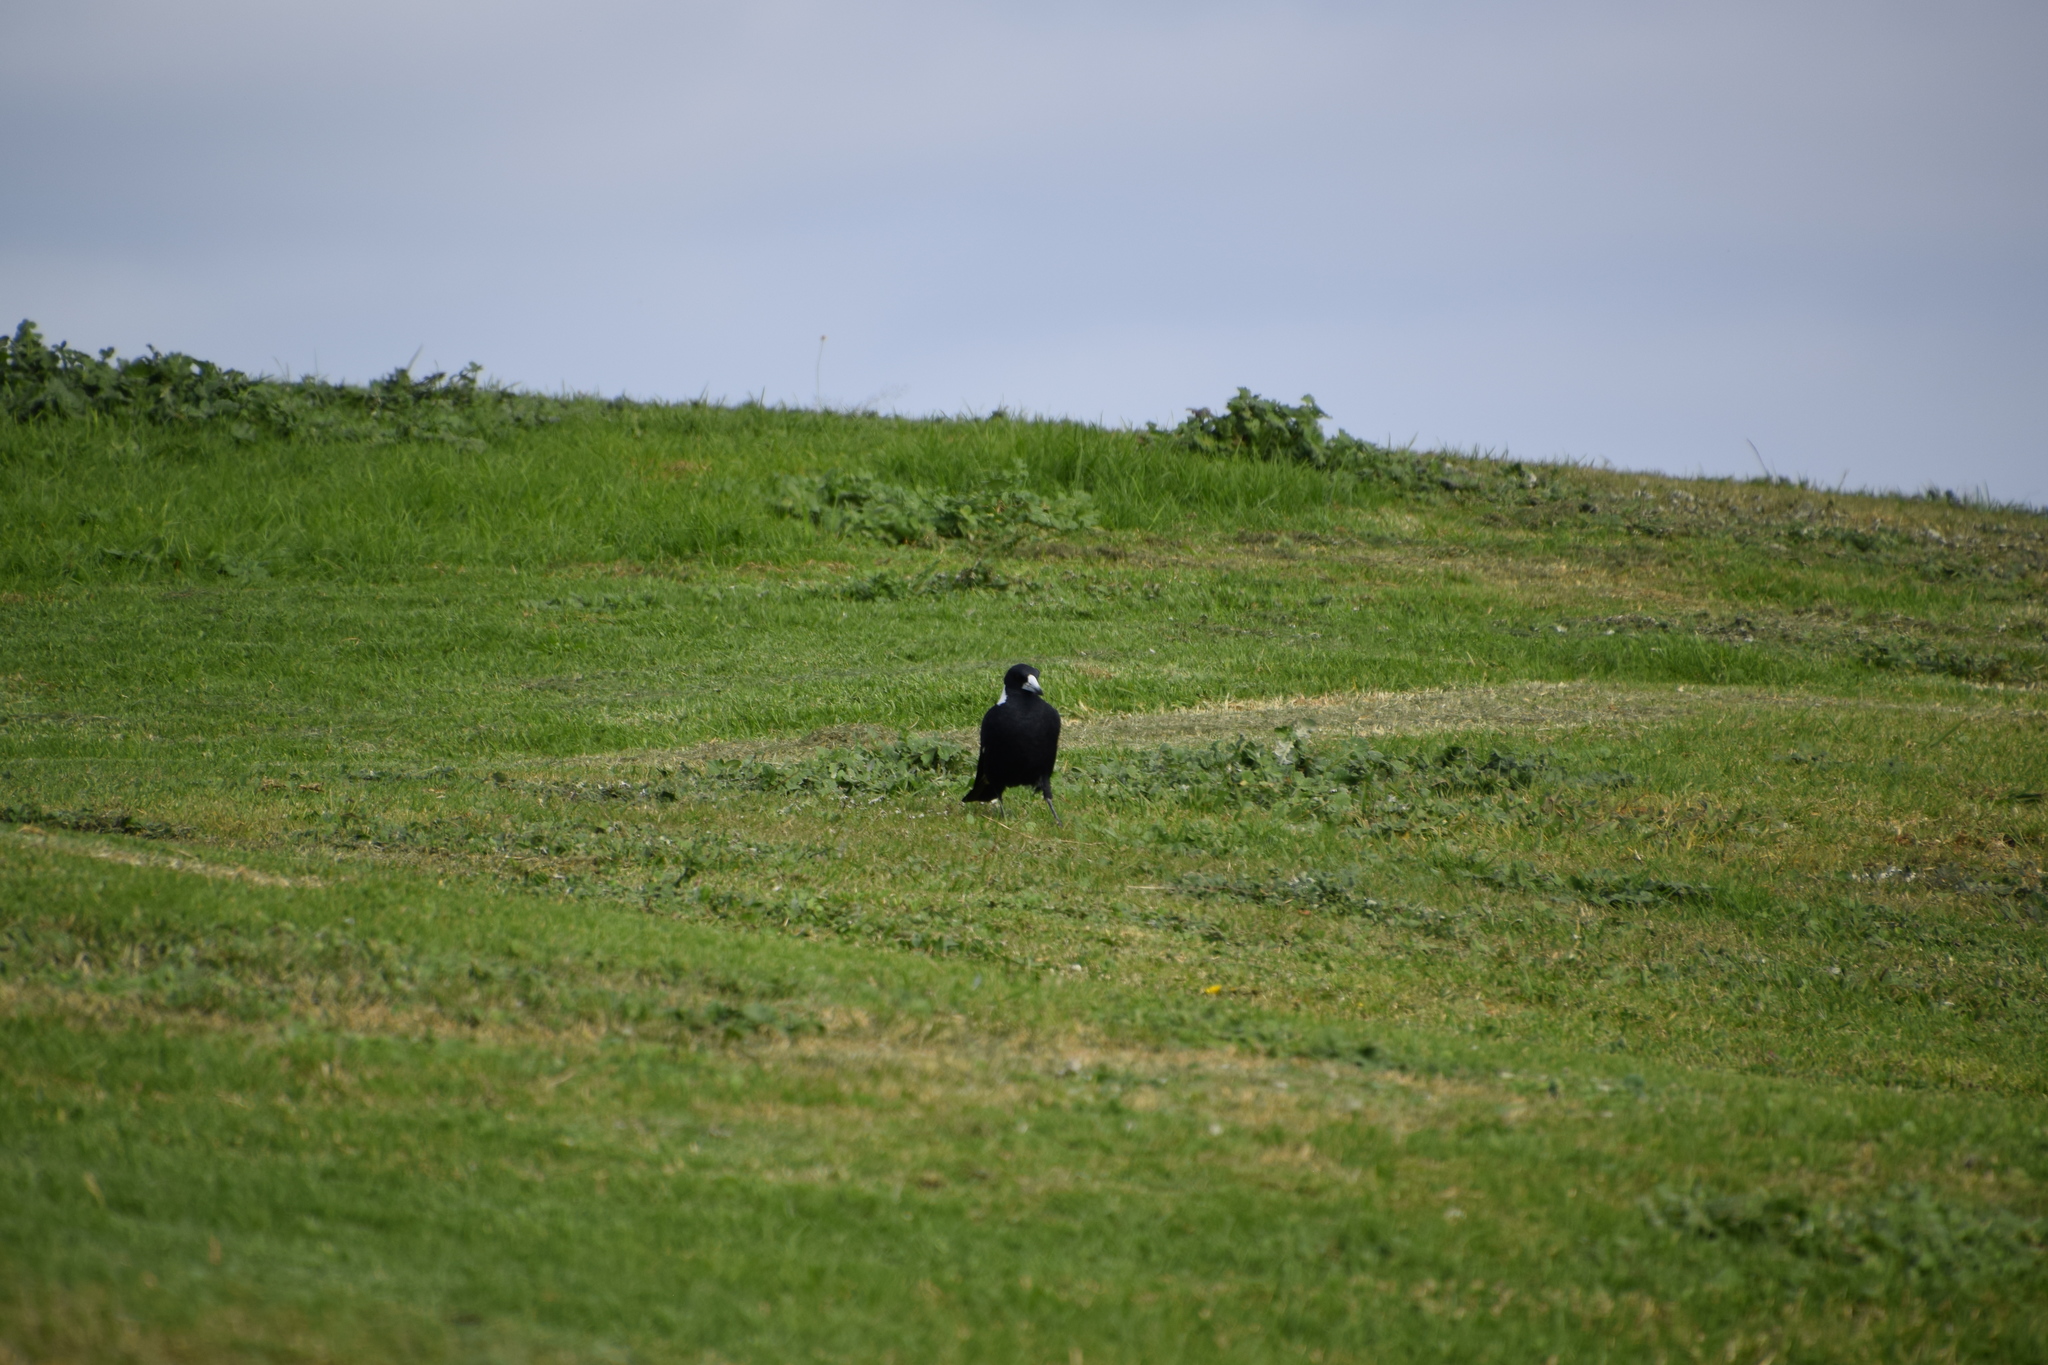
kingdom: Animalia
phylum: Chordata
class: Aves
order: Passeriformes
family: Cracticidae
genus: Gymnorhina
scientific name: Gymnorhina tibicen
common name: Australian magpie
